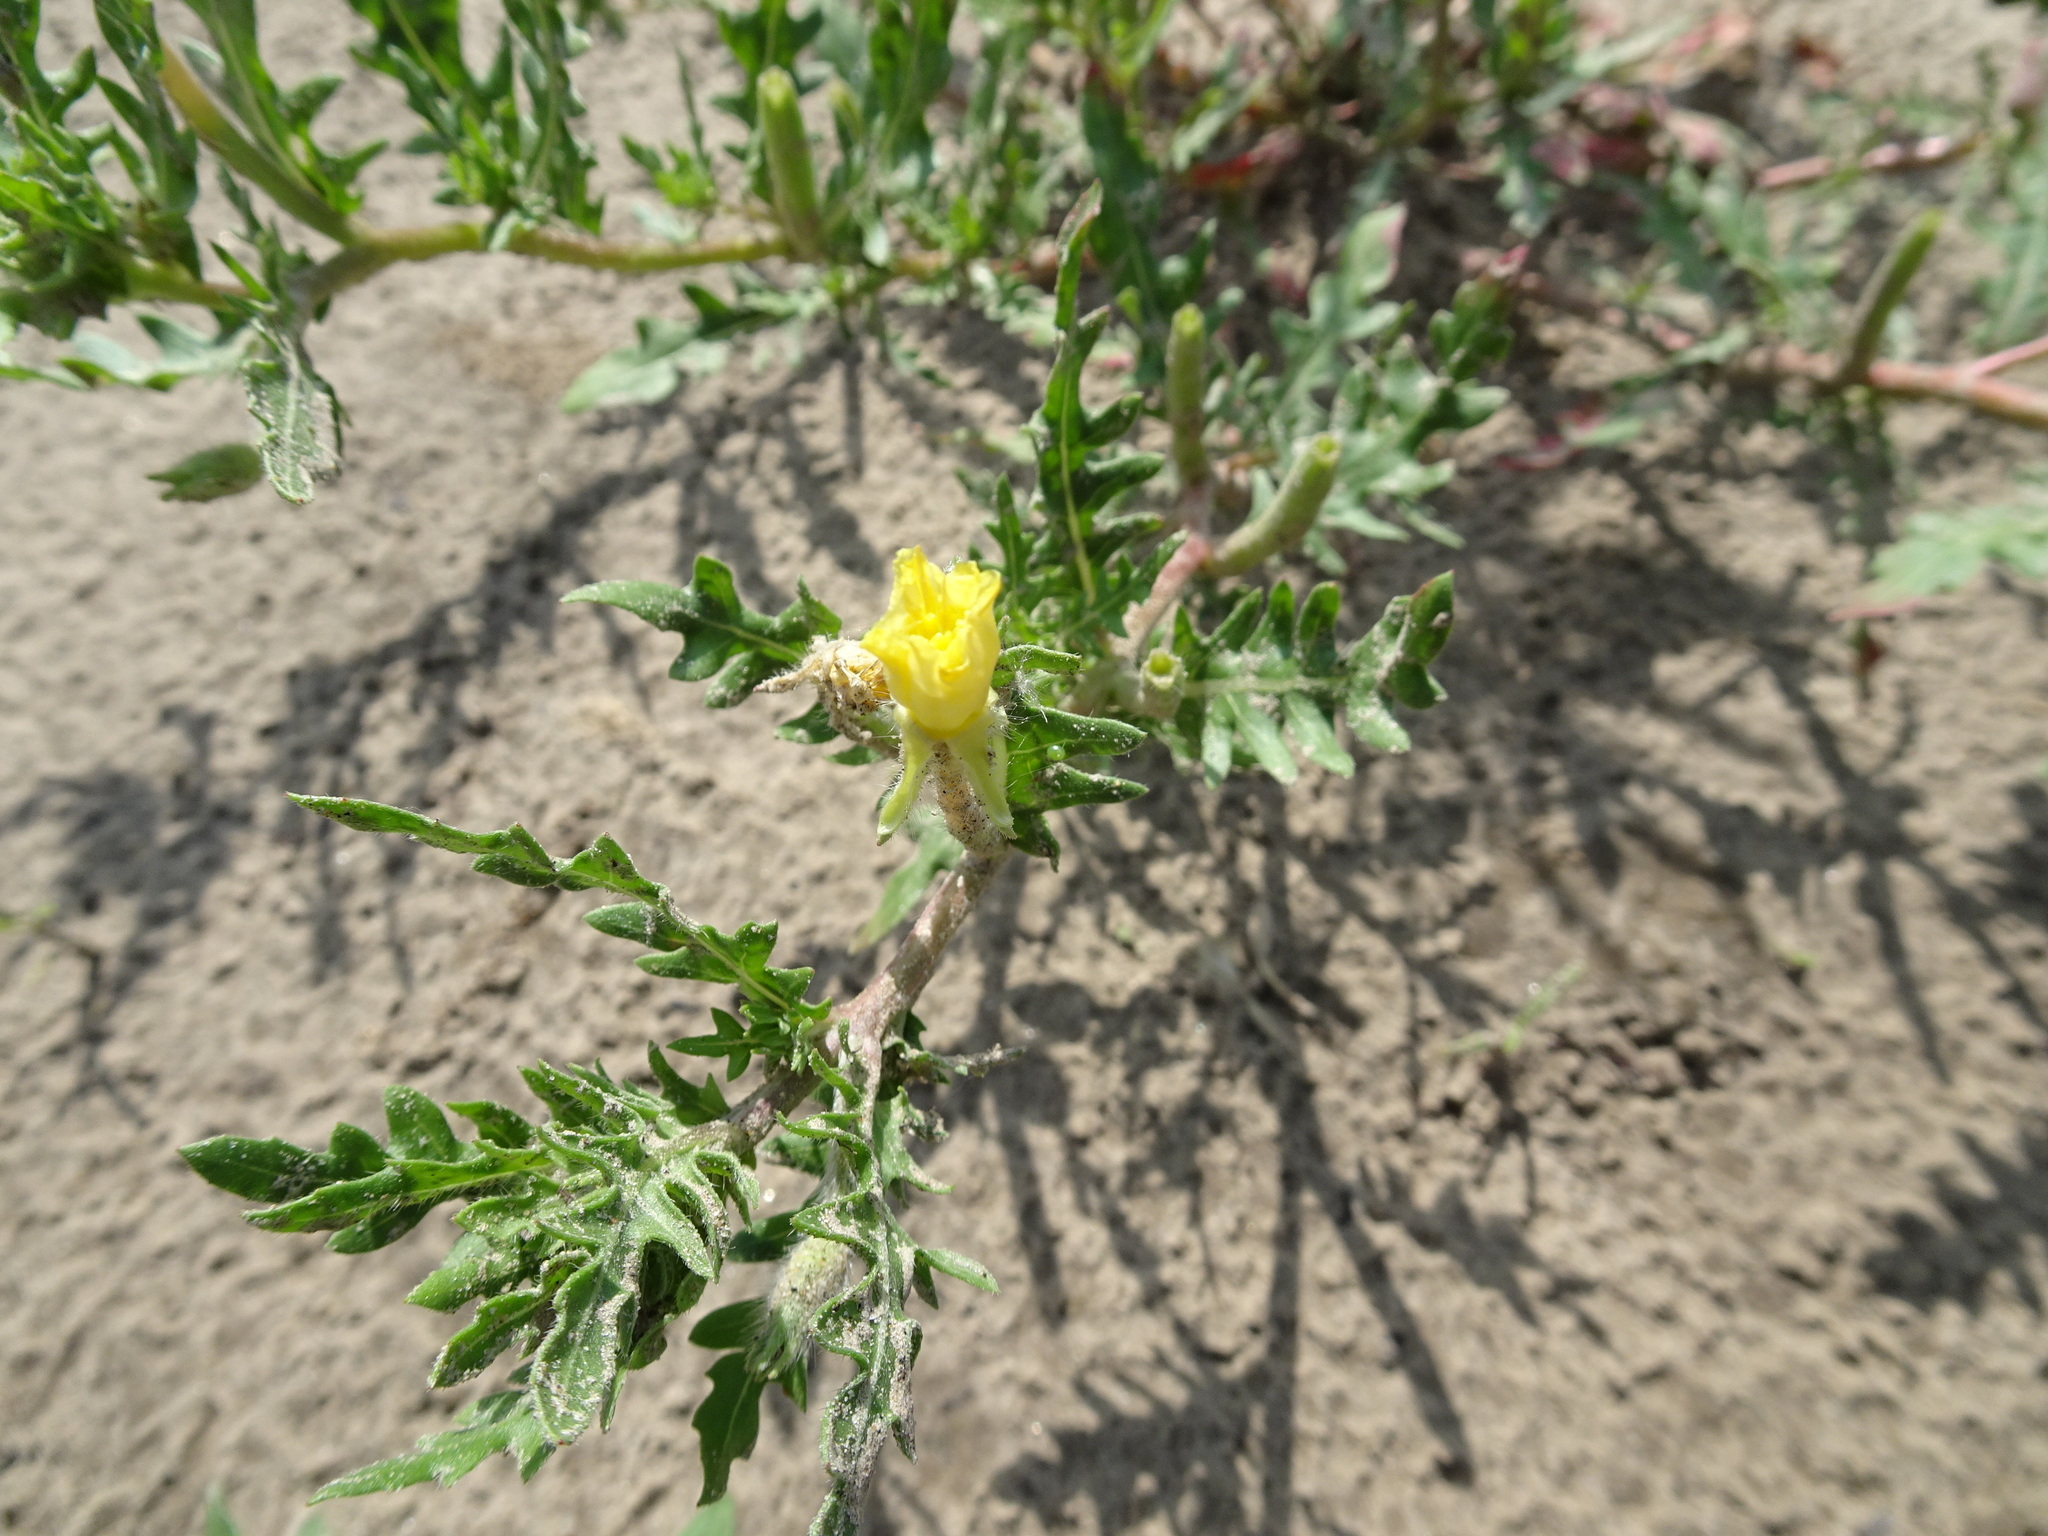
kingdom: Plantae
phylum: Tracheophyta
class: Magnoliopsida
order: Myrtales
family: Onagraceae
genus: Oenothera
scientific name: Oenothera laciniata
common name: Cut-leaved evening-primrose
